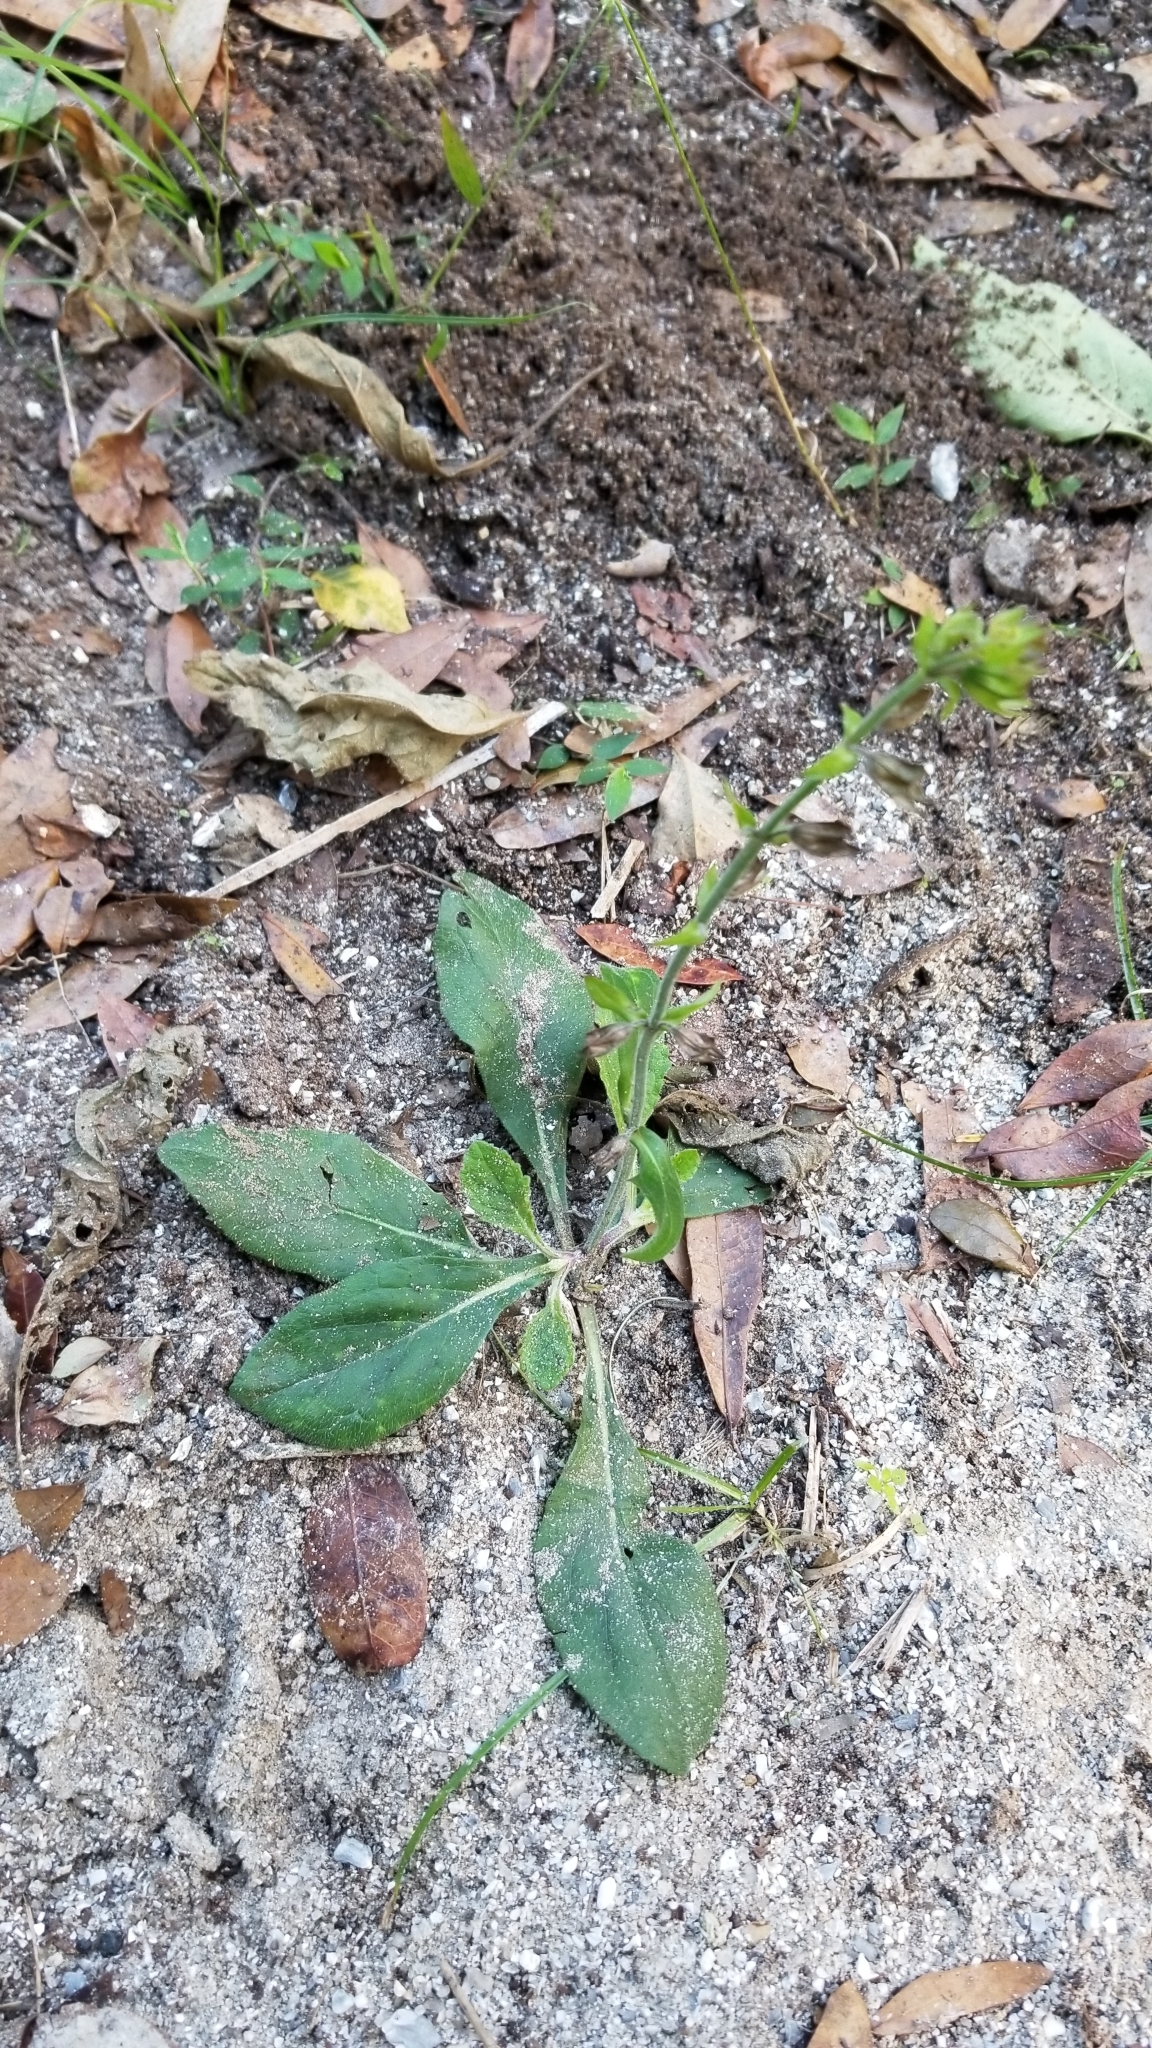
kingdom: Plantae
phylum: Tracheophyta
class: Magnoliopsida
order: Lamiales
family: Lamiaceae
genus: Salvia
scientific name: Salvia lyrata
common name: Cancerweed
